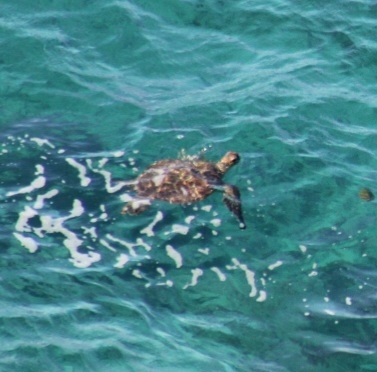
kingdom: Animalia
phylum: Chordata
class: Testudines
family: Cheloniidae
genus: Chelonia
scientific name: Chelonia mydas
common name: Green turtle
